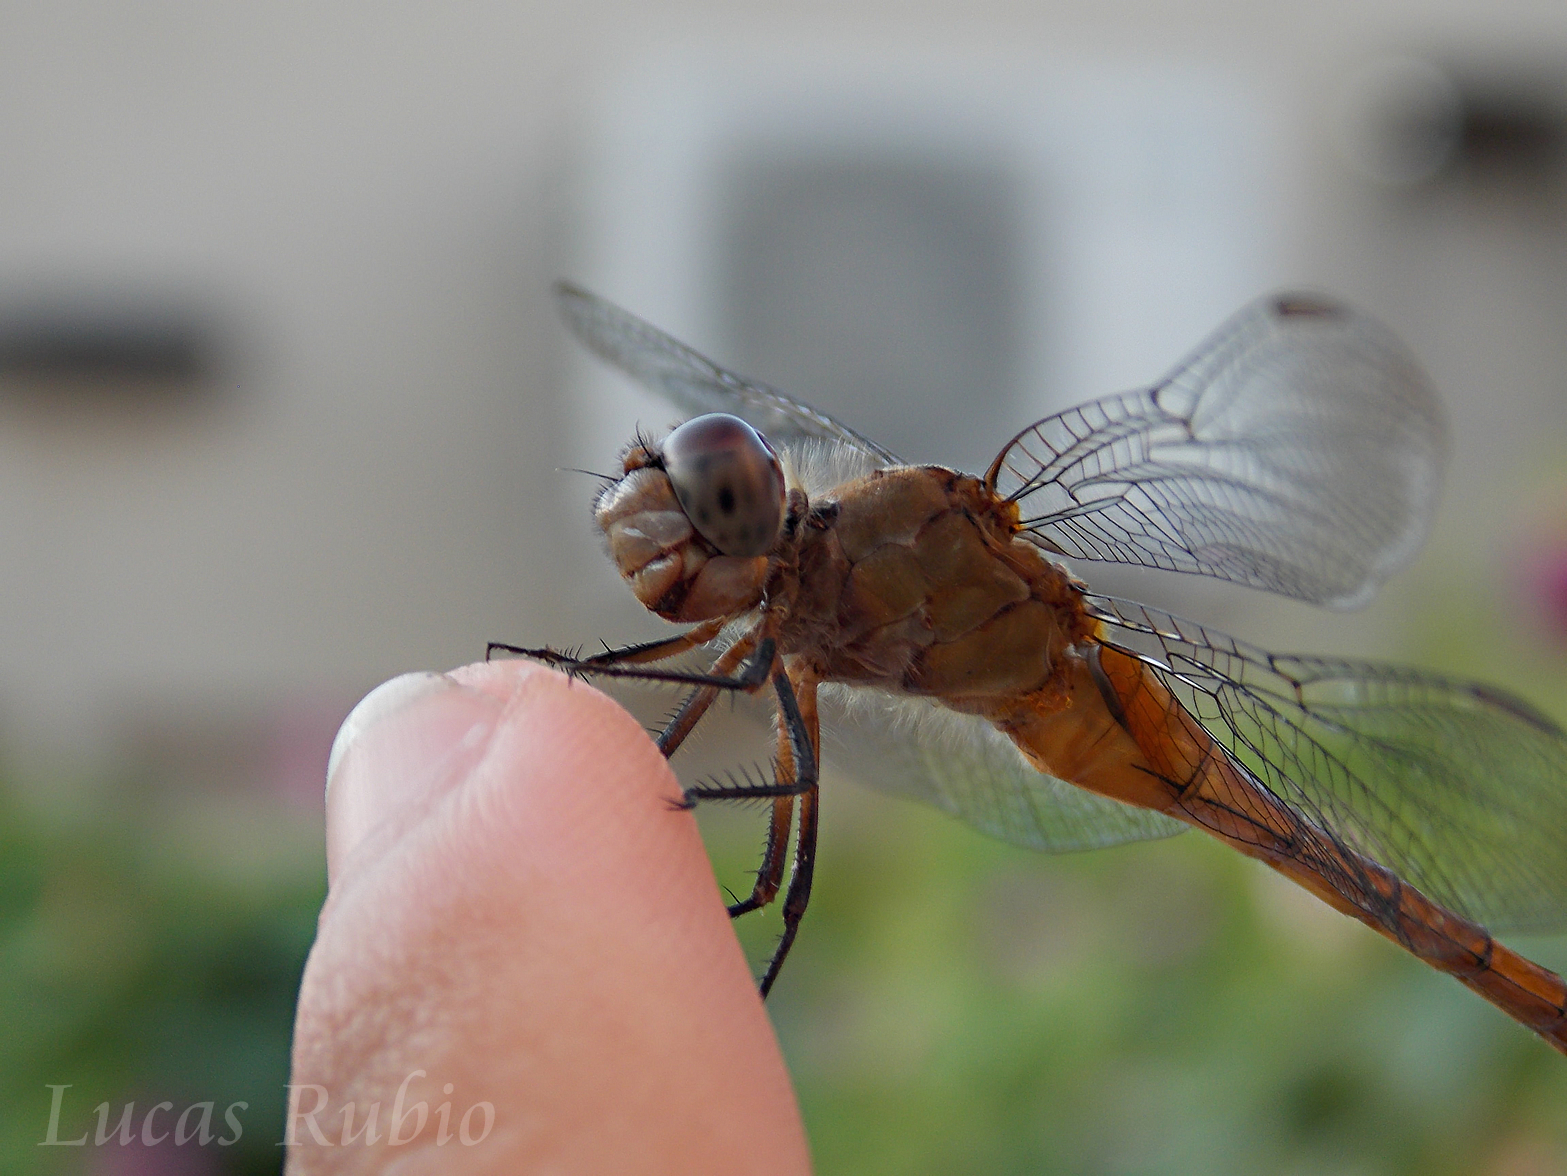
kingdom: Animalia
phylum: Arthropoda
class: Insecta
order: Odonata
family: Libellulidae
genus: Brachymesia
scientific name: Brachymesia furcata
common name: Red-taled pennant
